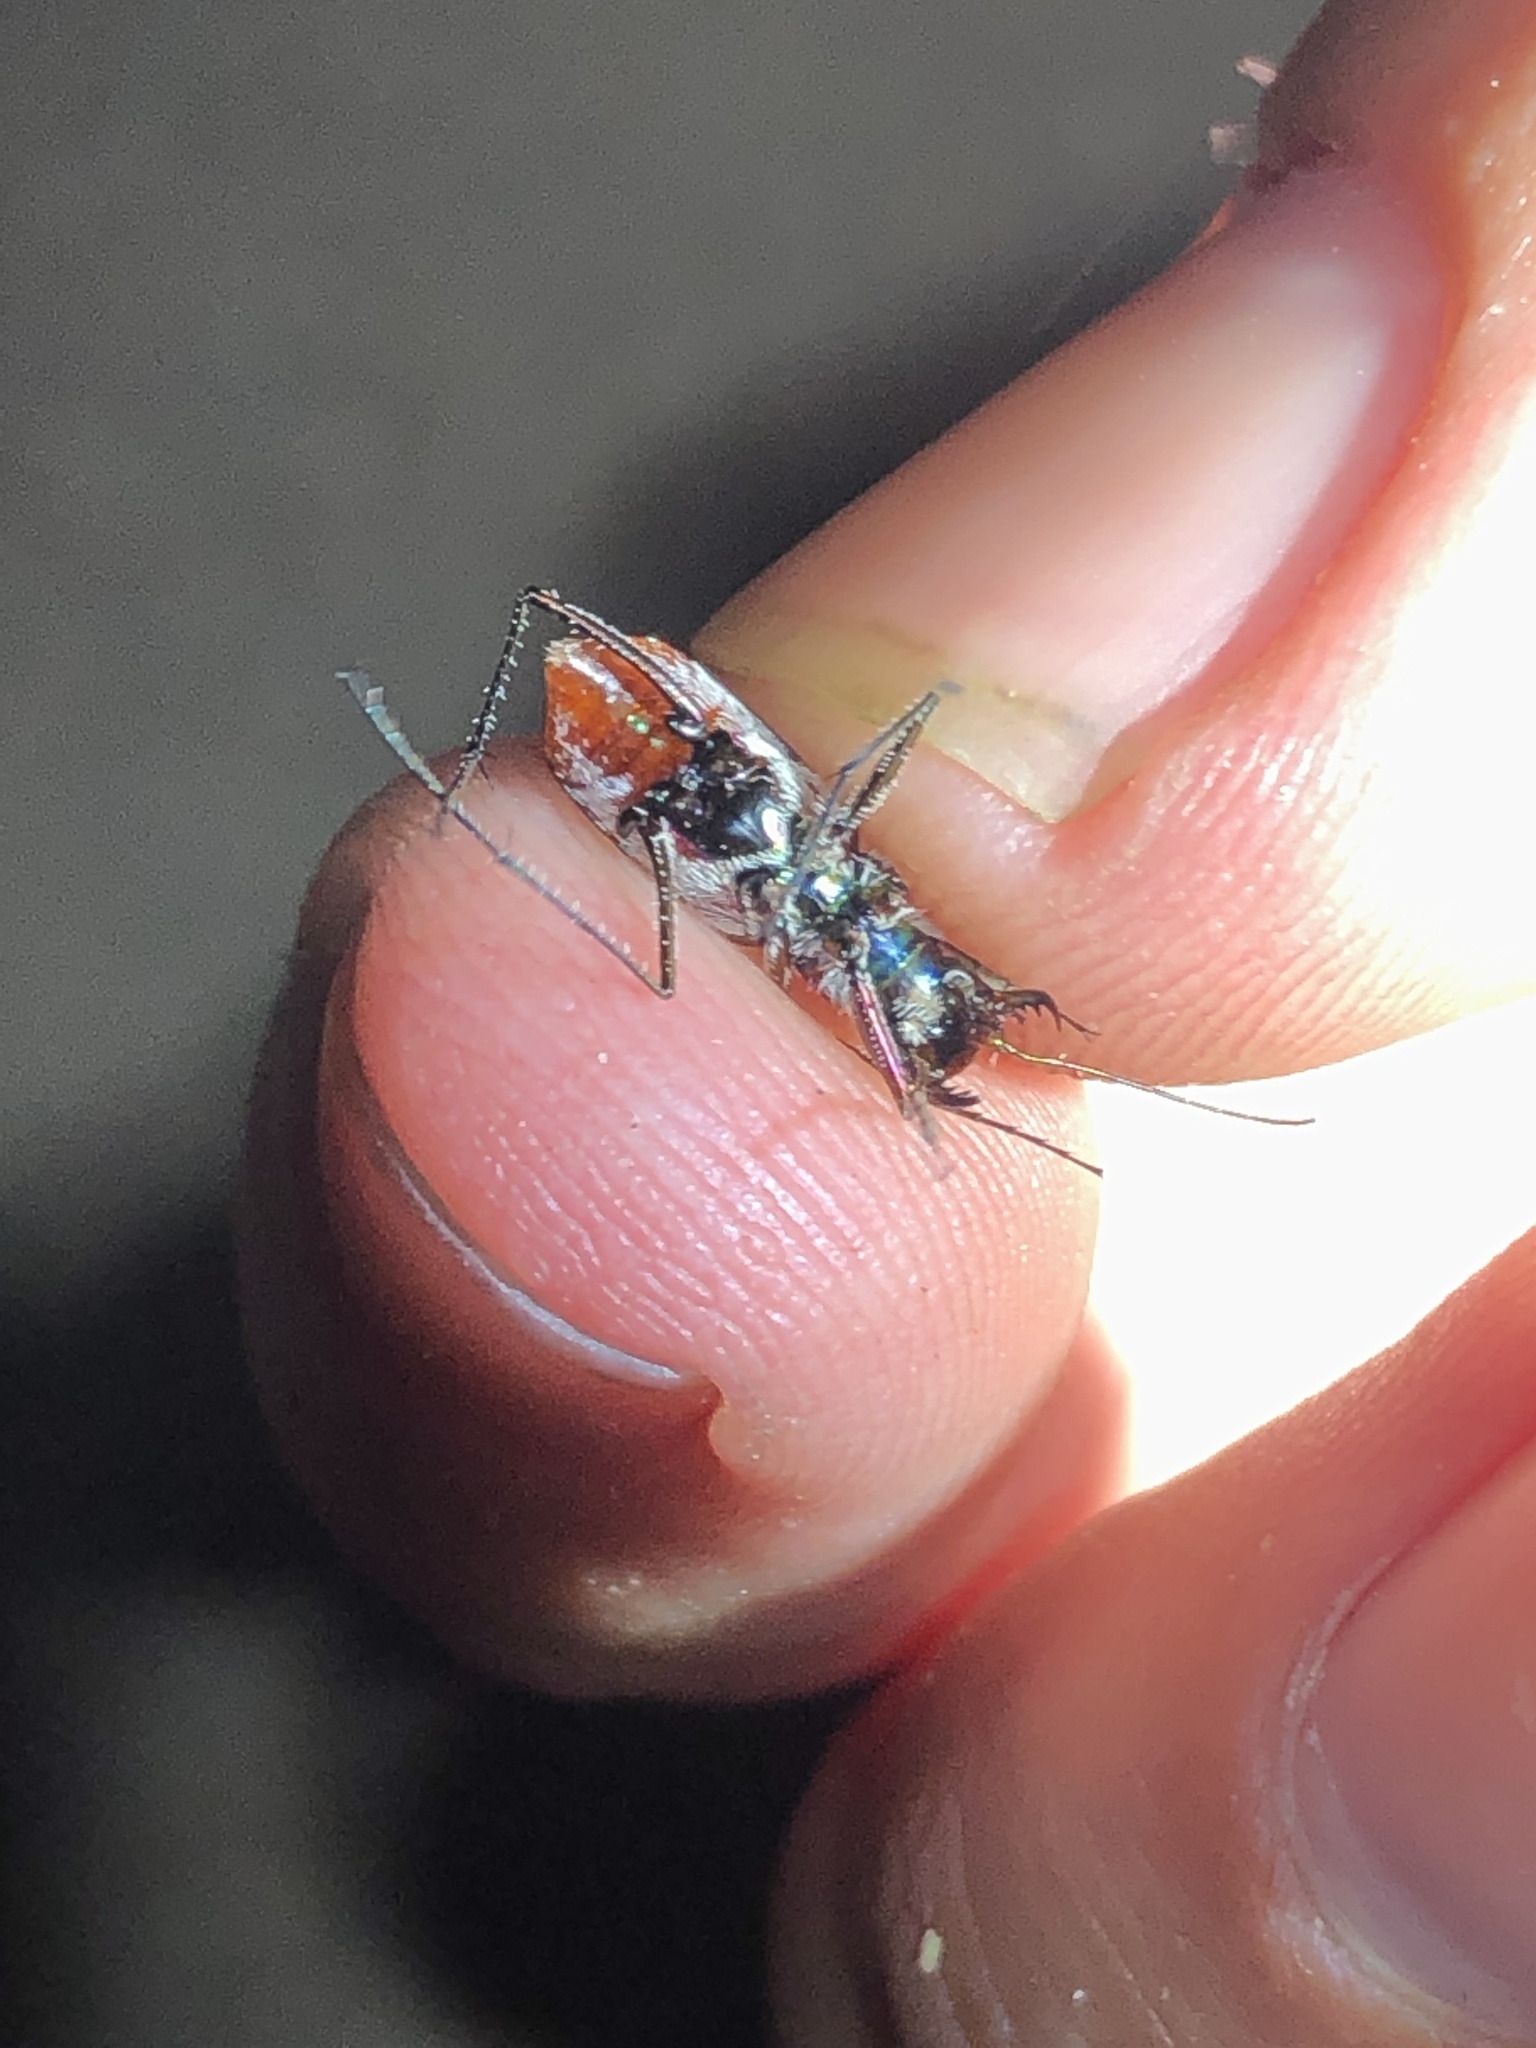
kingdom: Animalia
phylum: Arthropoda
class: Insecta
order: Coleoptera
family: Carabidae
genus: Cicindela
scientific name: Cicindela sedecimpunctata
